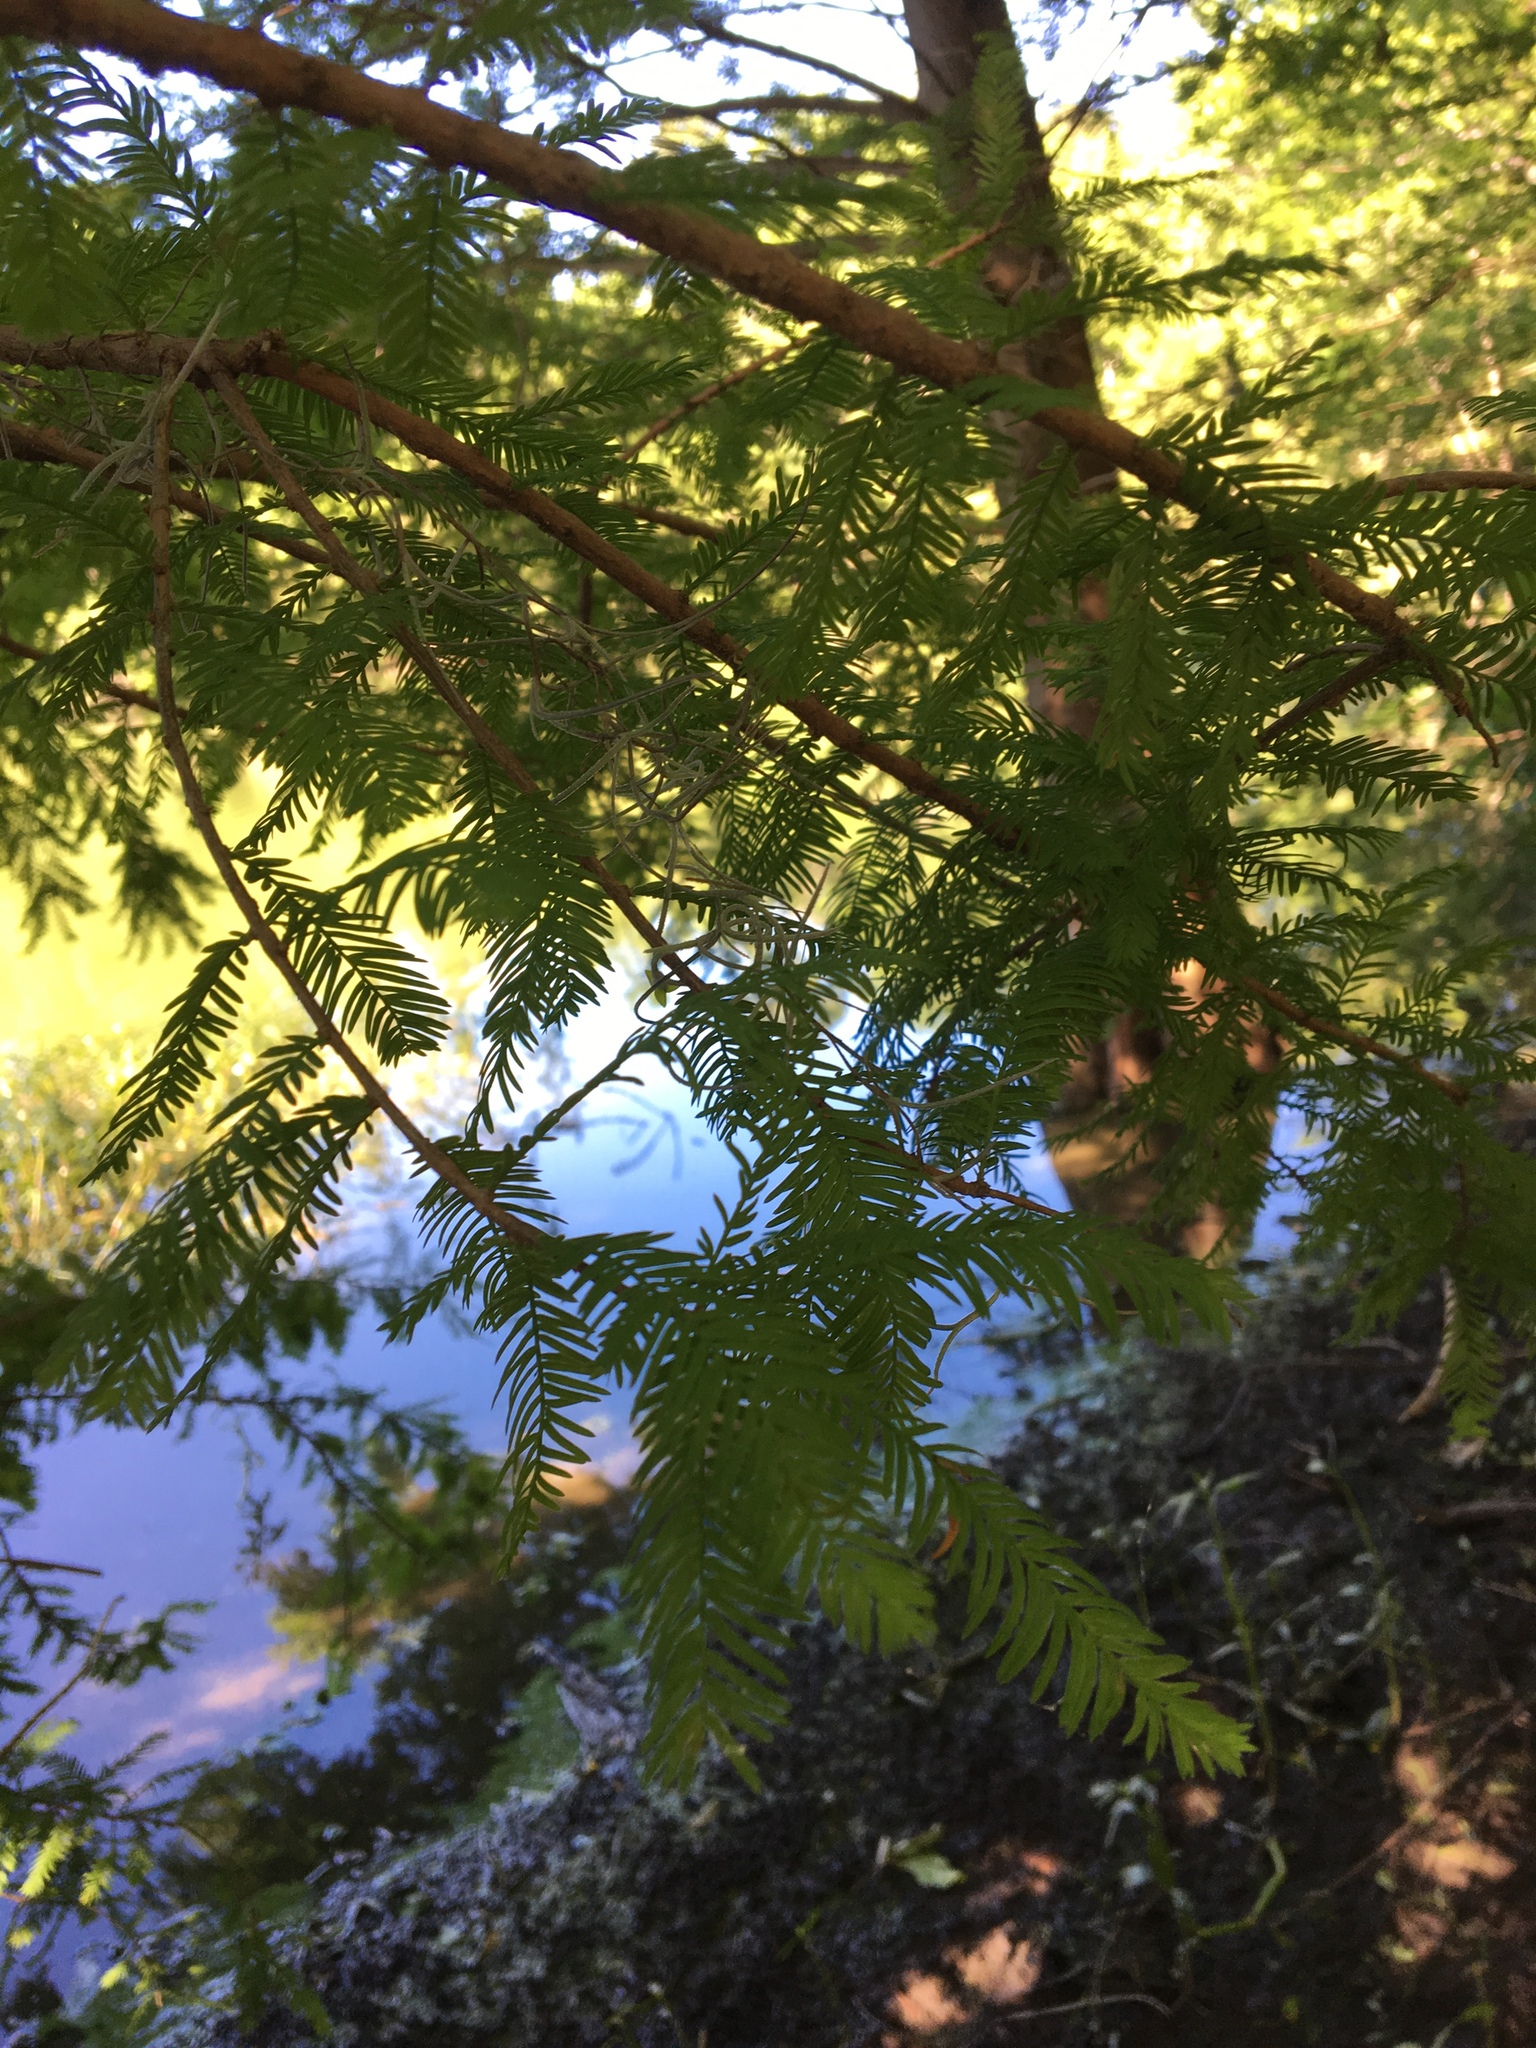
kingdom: Plantae
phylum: Tracheophyta
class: Pinopsida
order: Pinales
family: Cupressaceae
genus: Taxodium
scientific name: Taxodium distichum
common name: Bald cypress
